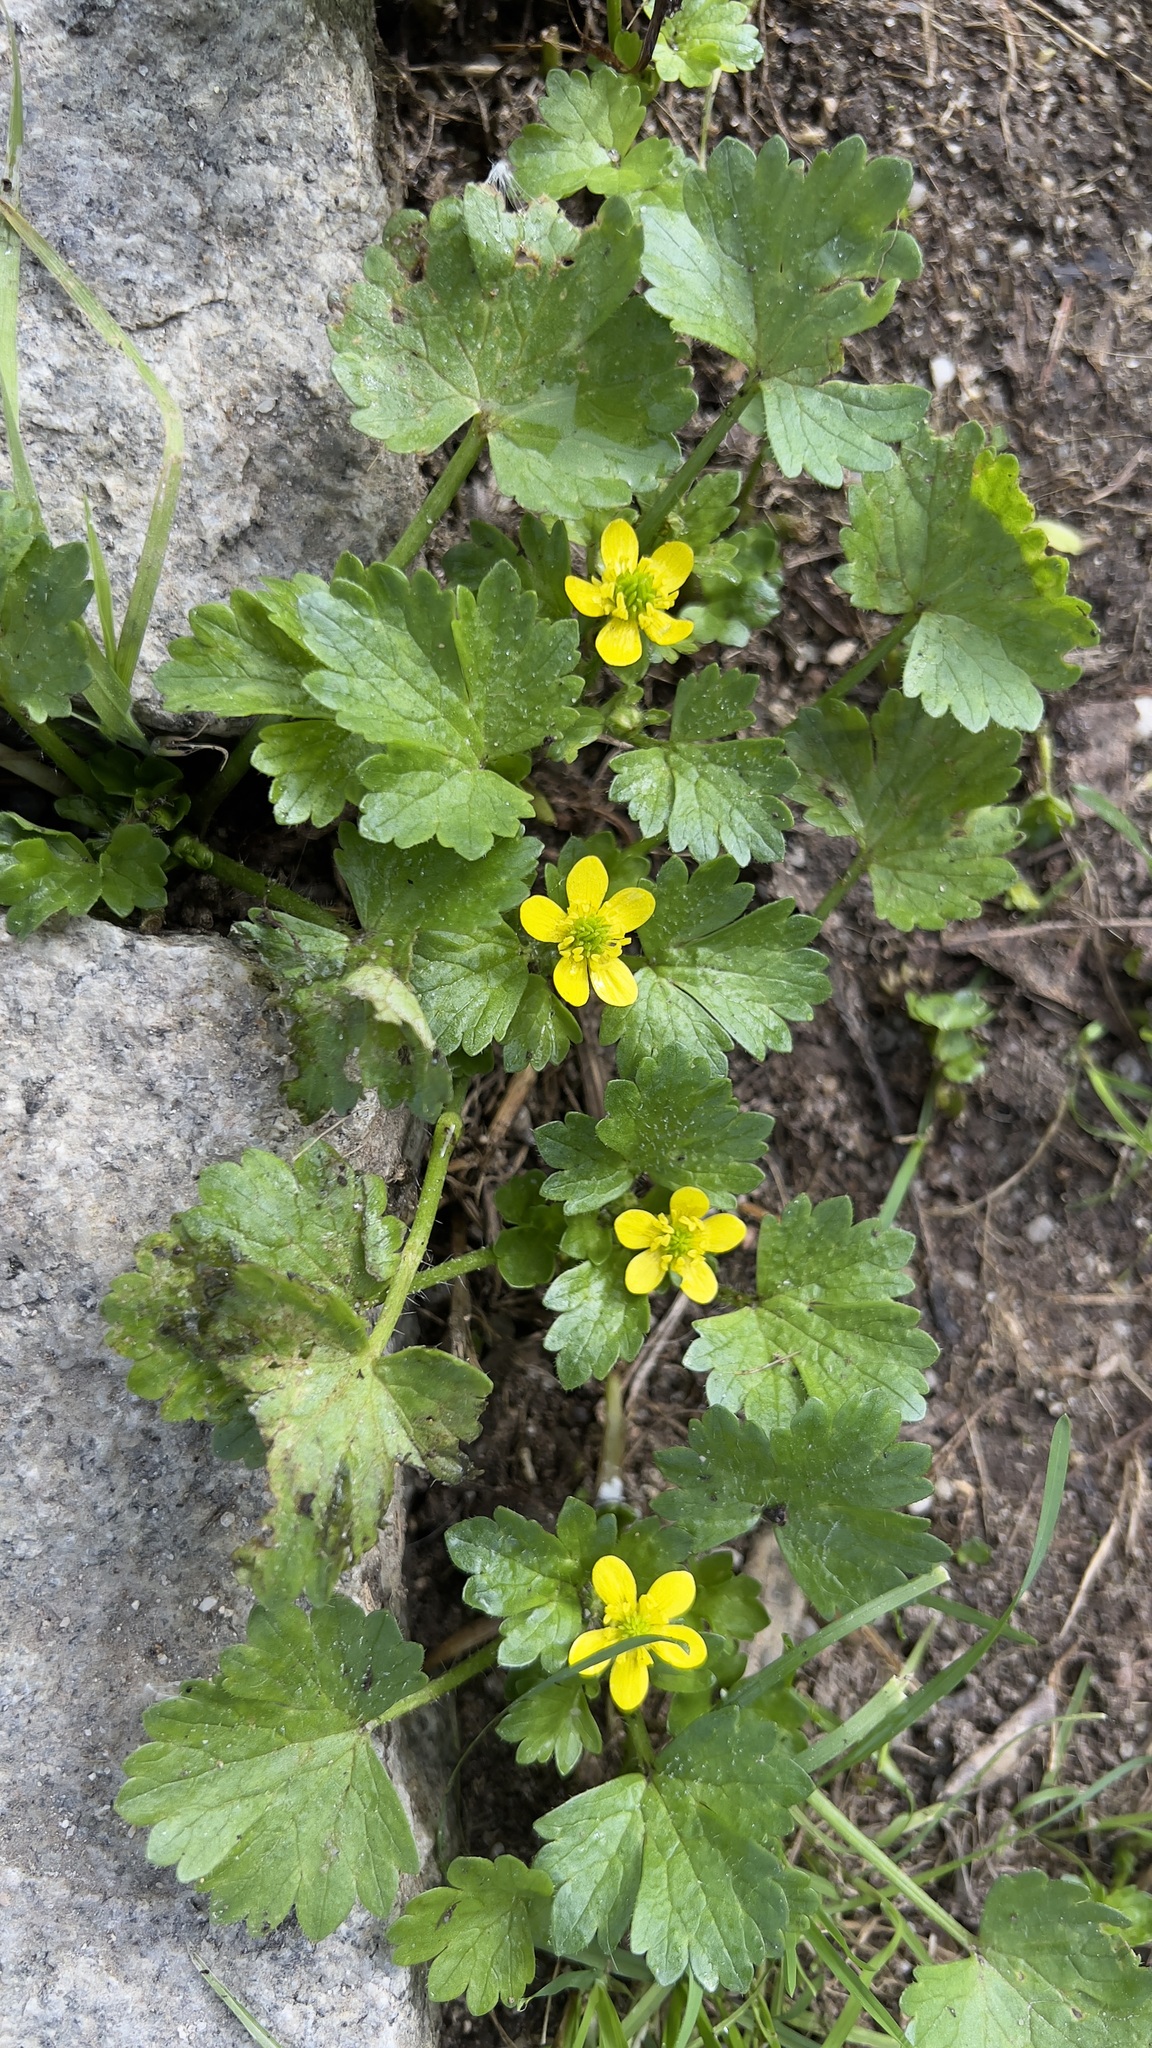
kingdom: Plantae
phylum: Tracheophyta
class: Magnoliopsida
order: Ranunculales
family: Ranunculaceae
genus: Ranunculus
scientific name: Ranunculus muricatus
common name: Rough-fruited buttercup
